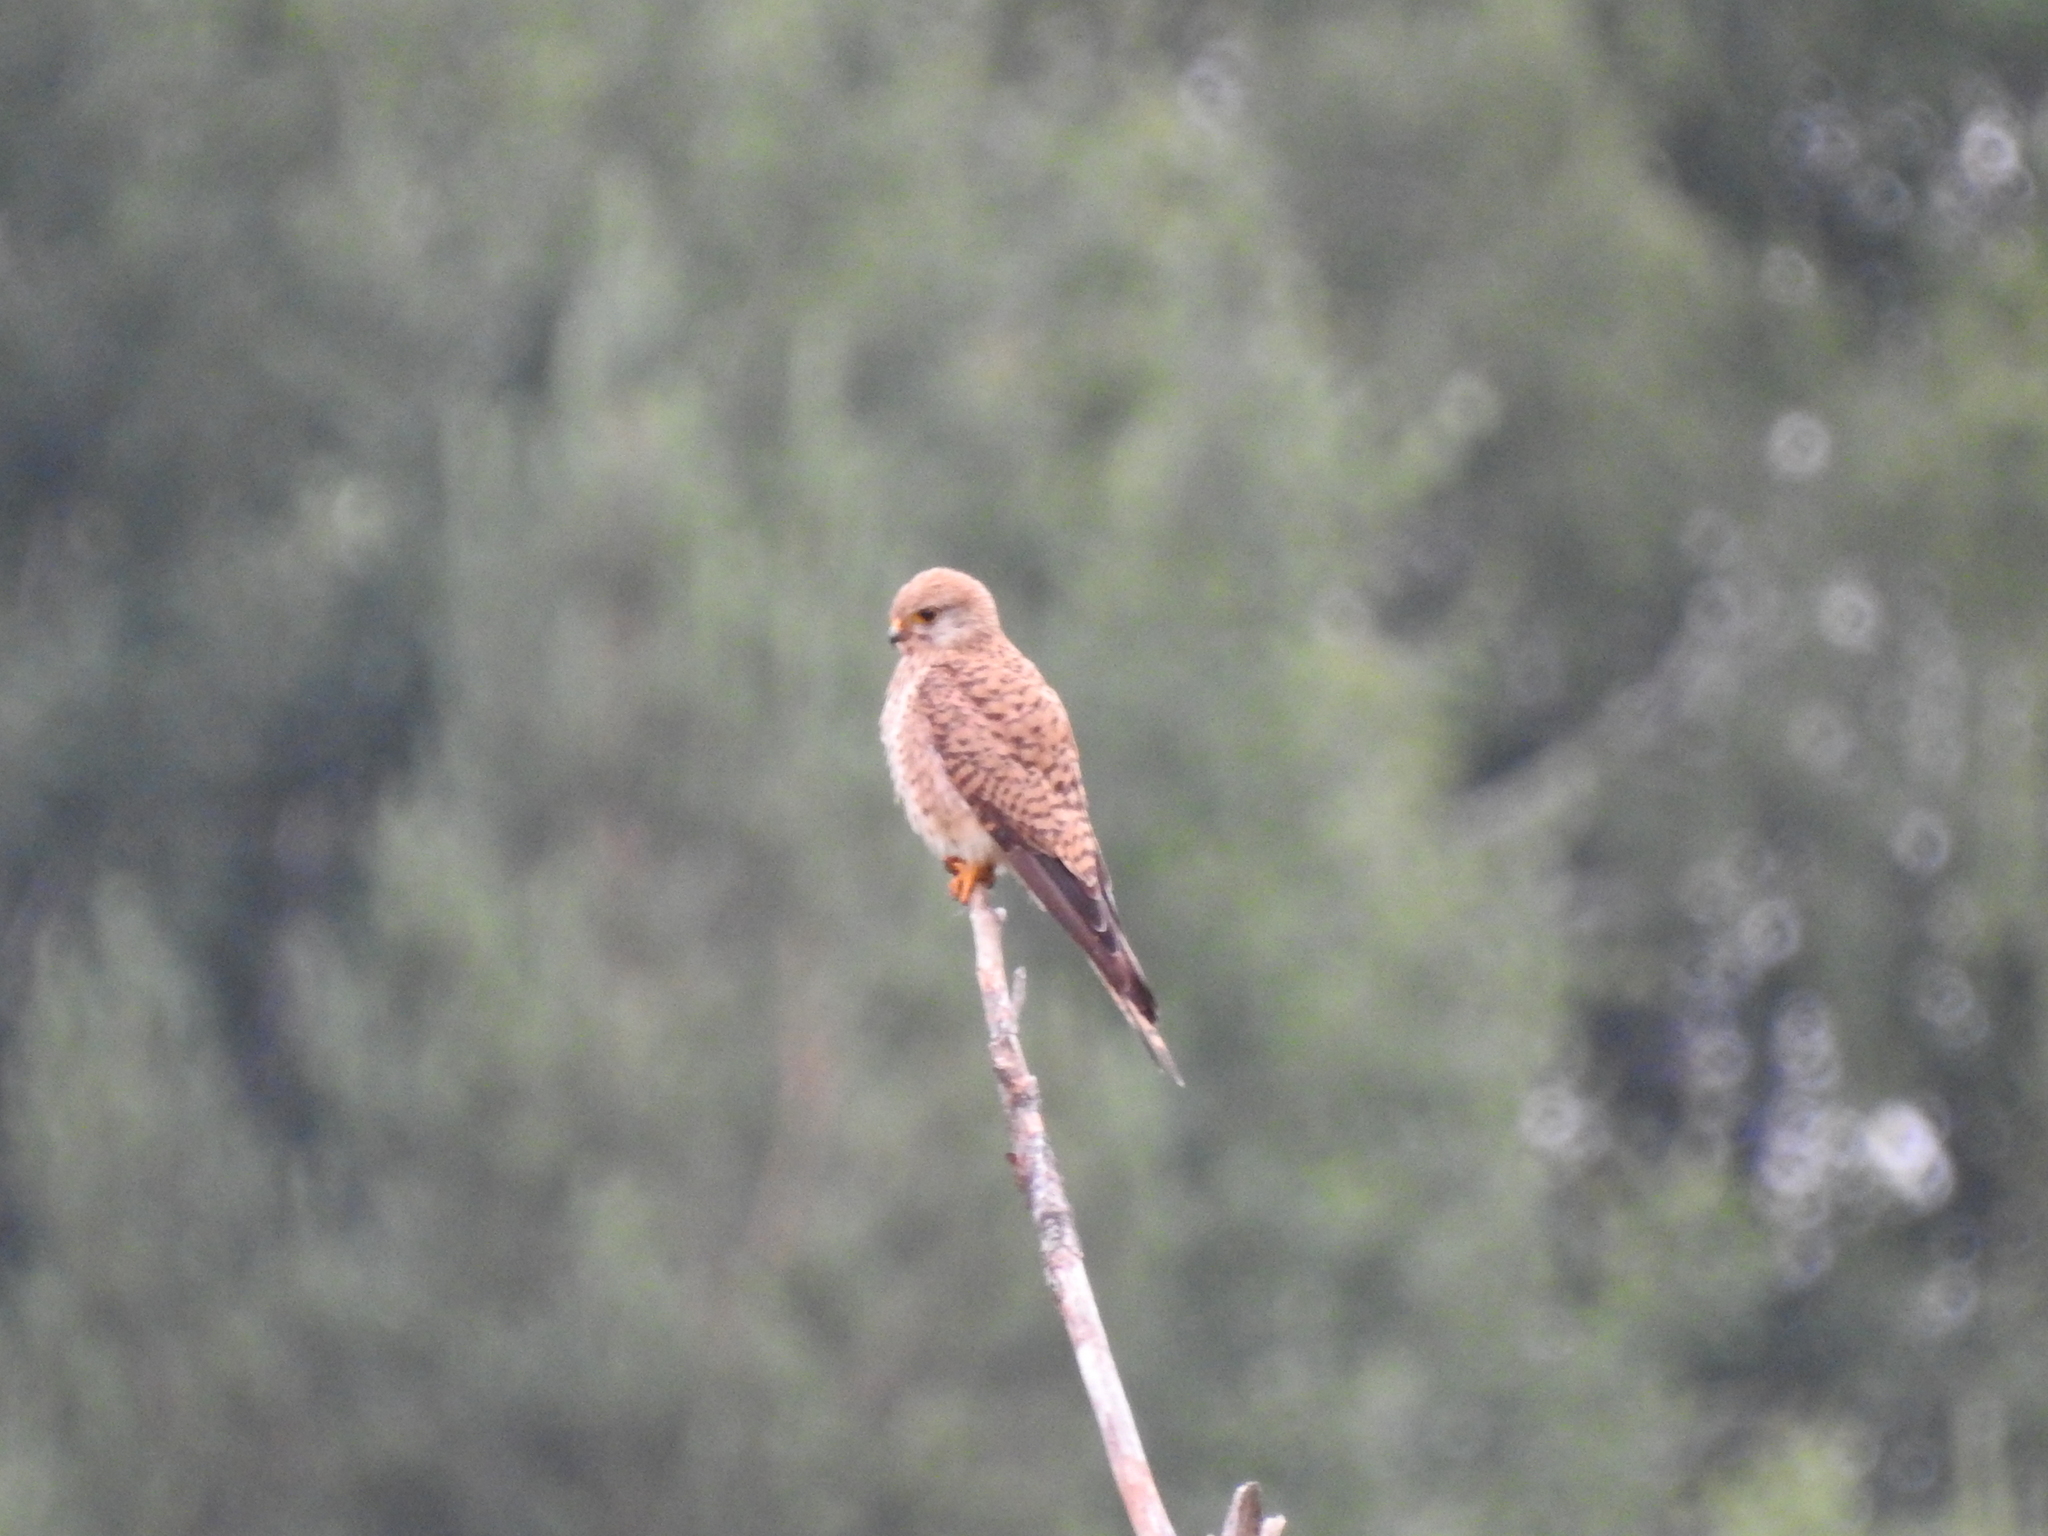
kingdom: Animalia
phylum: Chordata
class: Aves
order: Falconiformes
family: Falconidae
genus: Falco
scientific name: Falco tinnunculus
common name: Common kestrel
